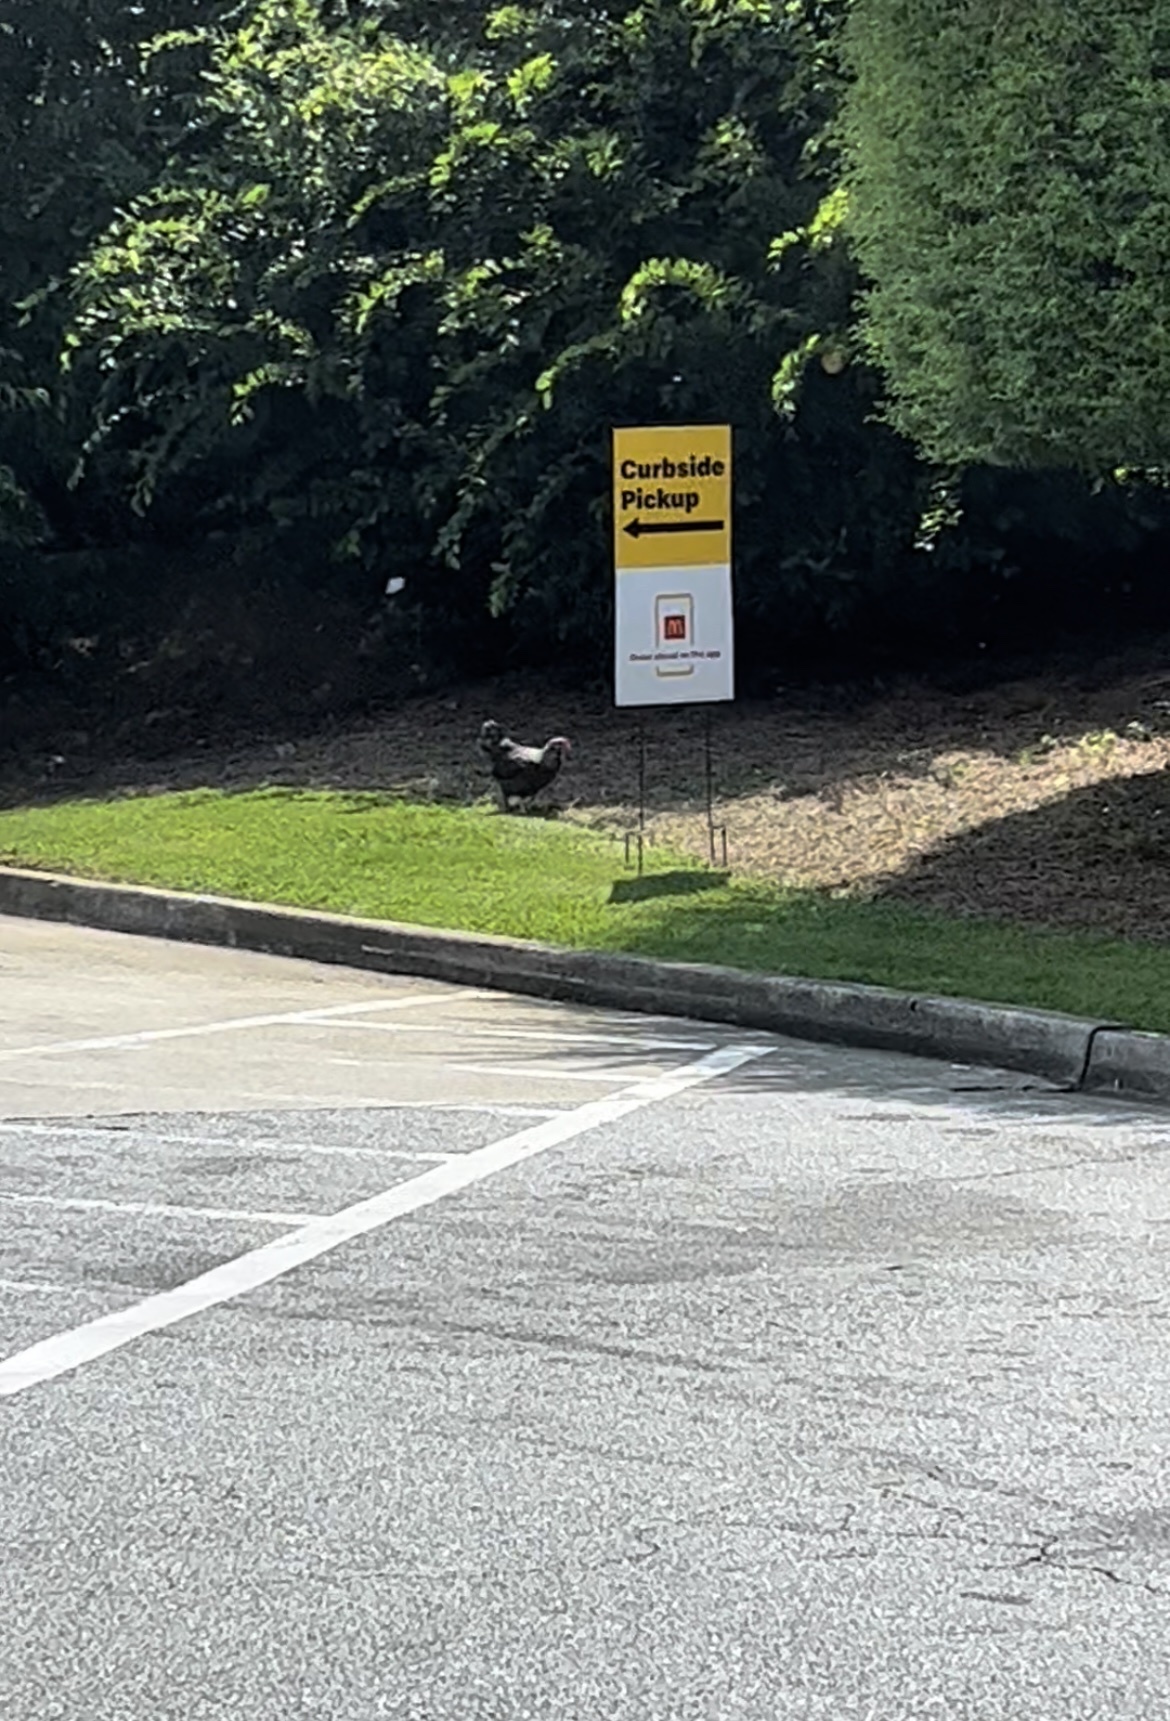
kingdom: Animalia
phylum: Chordata
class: Aves
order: Galliformes
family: Phasianidae
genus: Gallus
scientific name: Gallus gallus
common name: Red junglefowl
